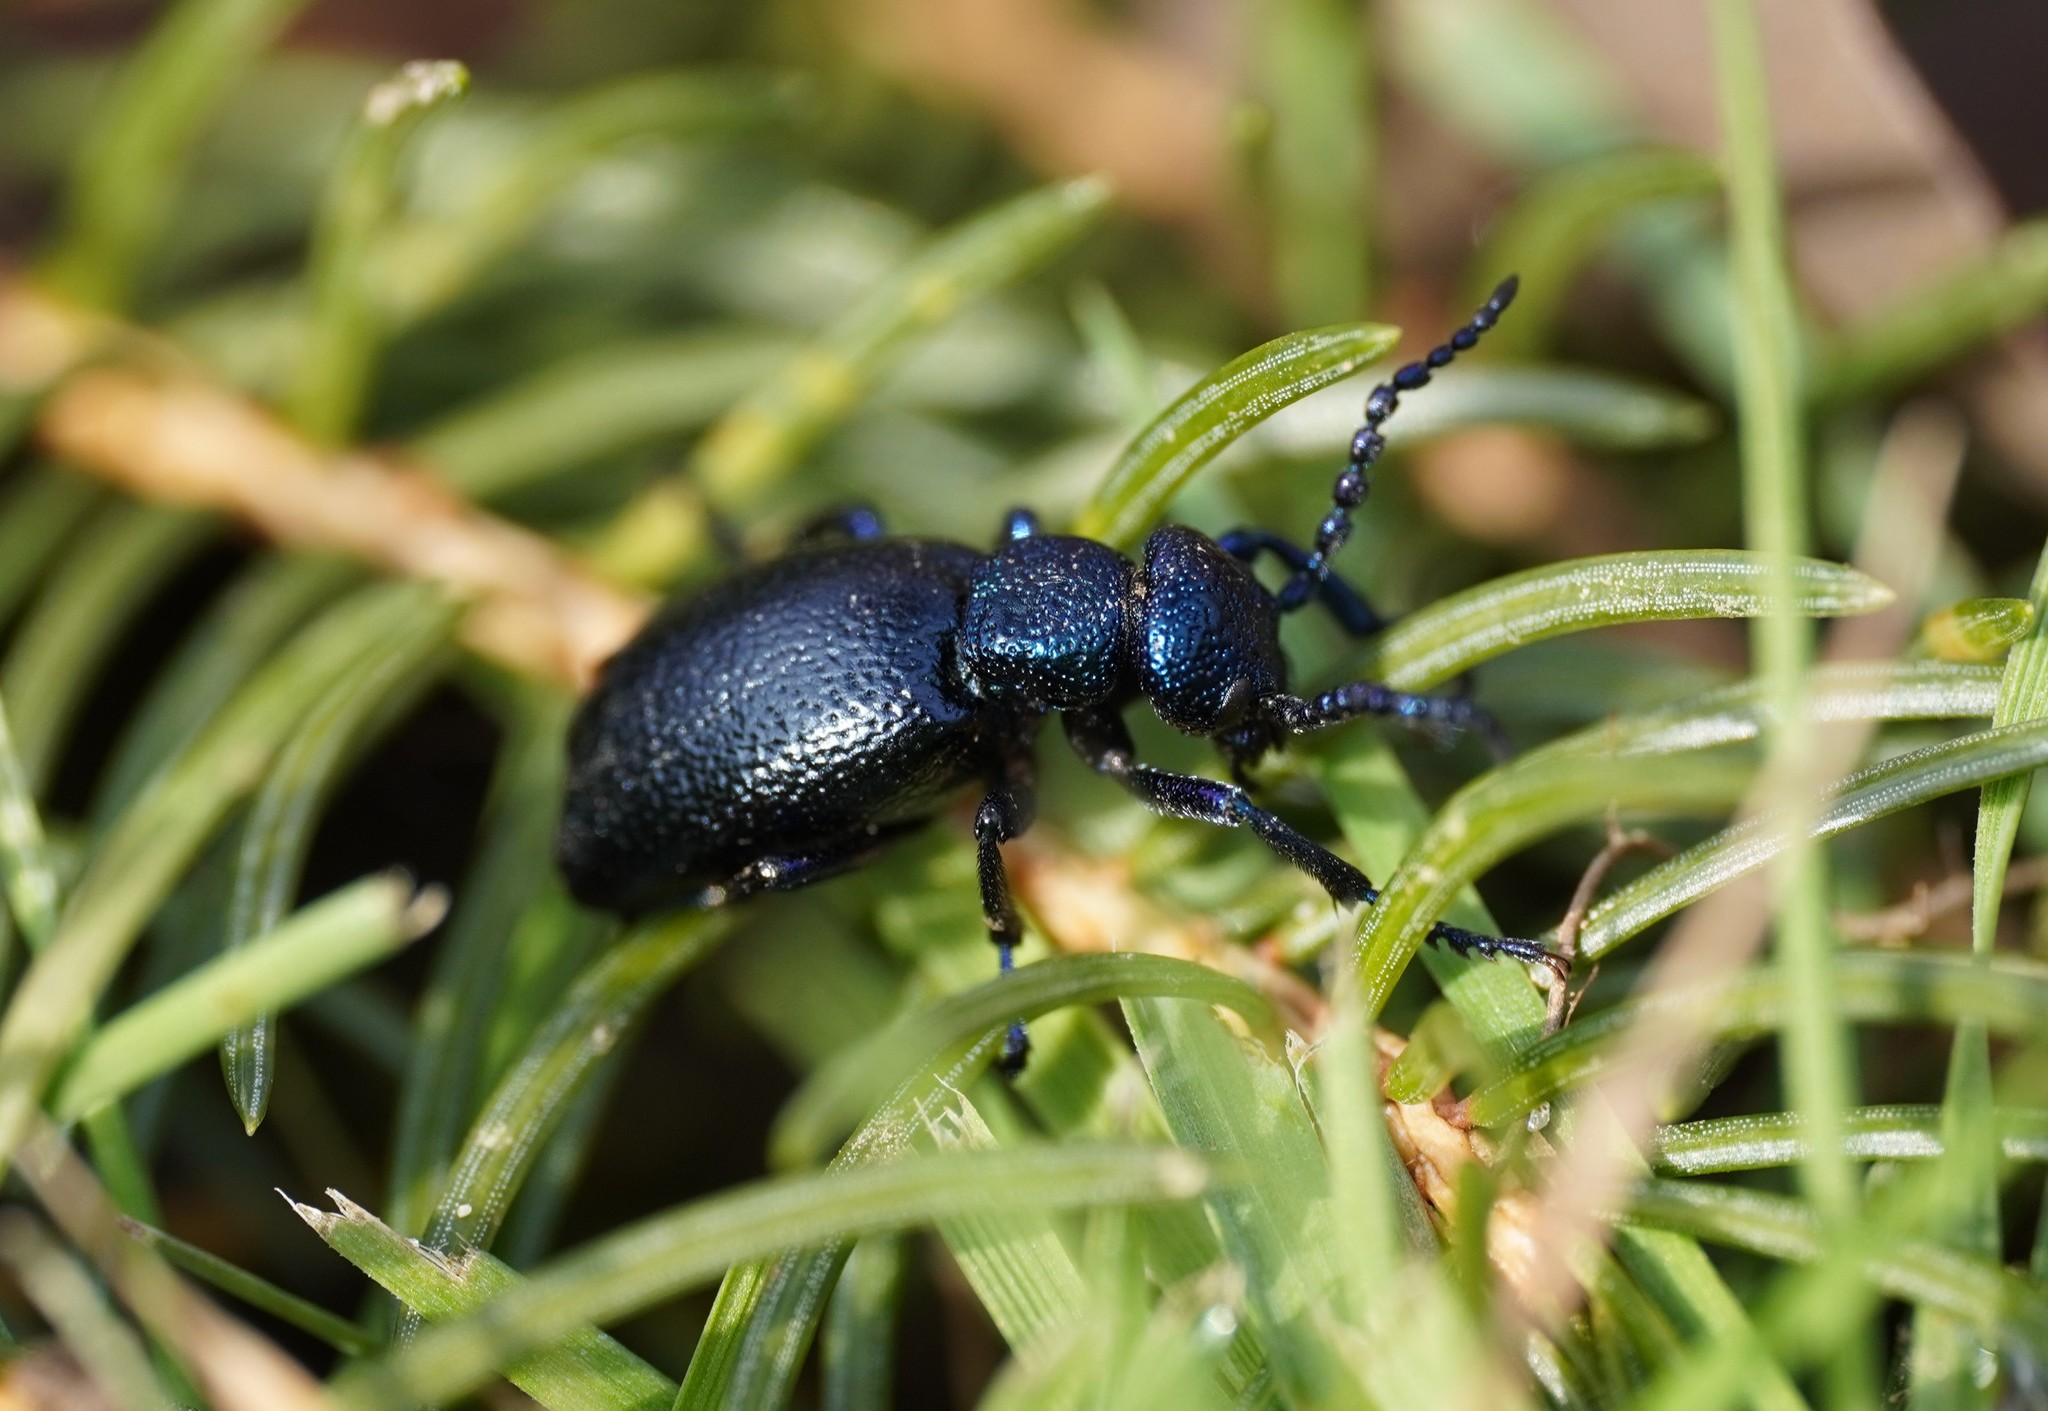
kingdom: Animalia
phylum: Arthropoda
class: Insecta
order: Coleoptera
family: Meloidae
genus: Meloe
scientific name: Meloe proscarabaeus
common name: Black oil-beetle
